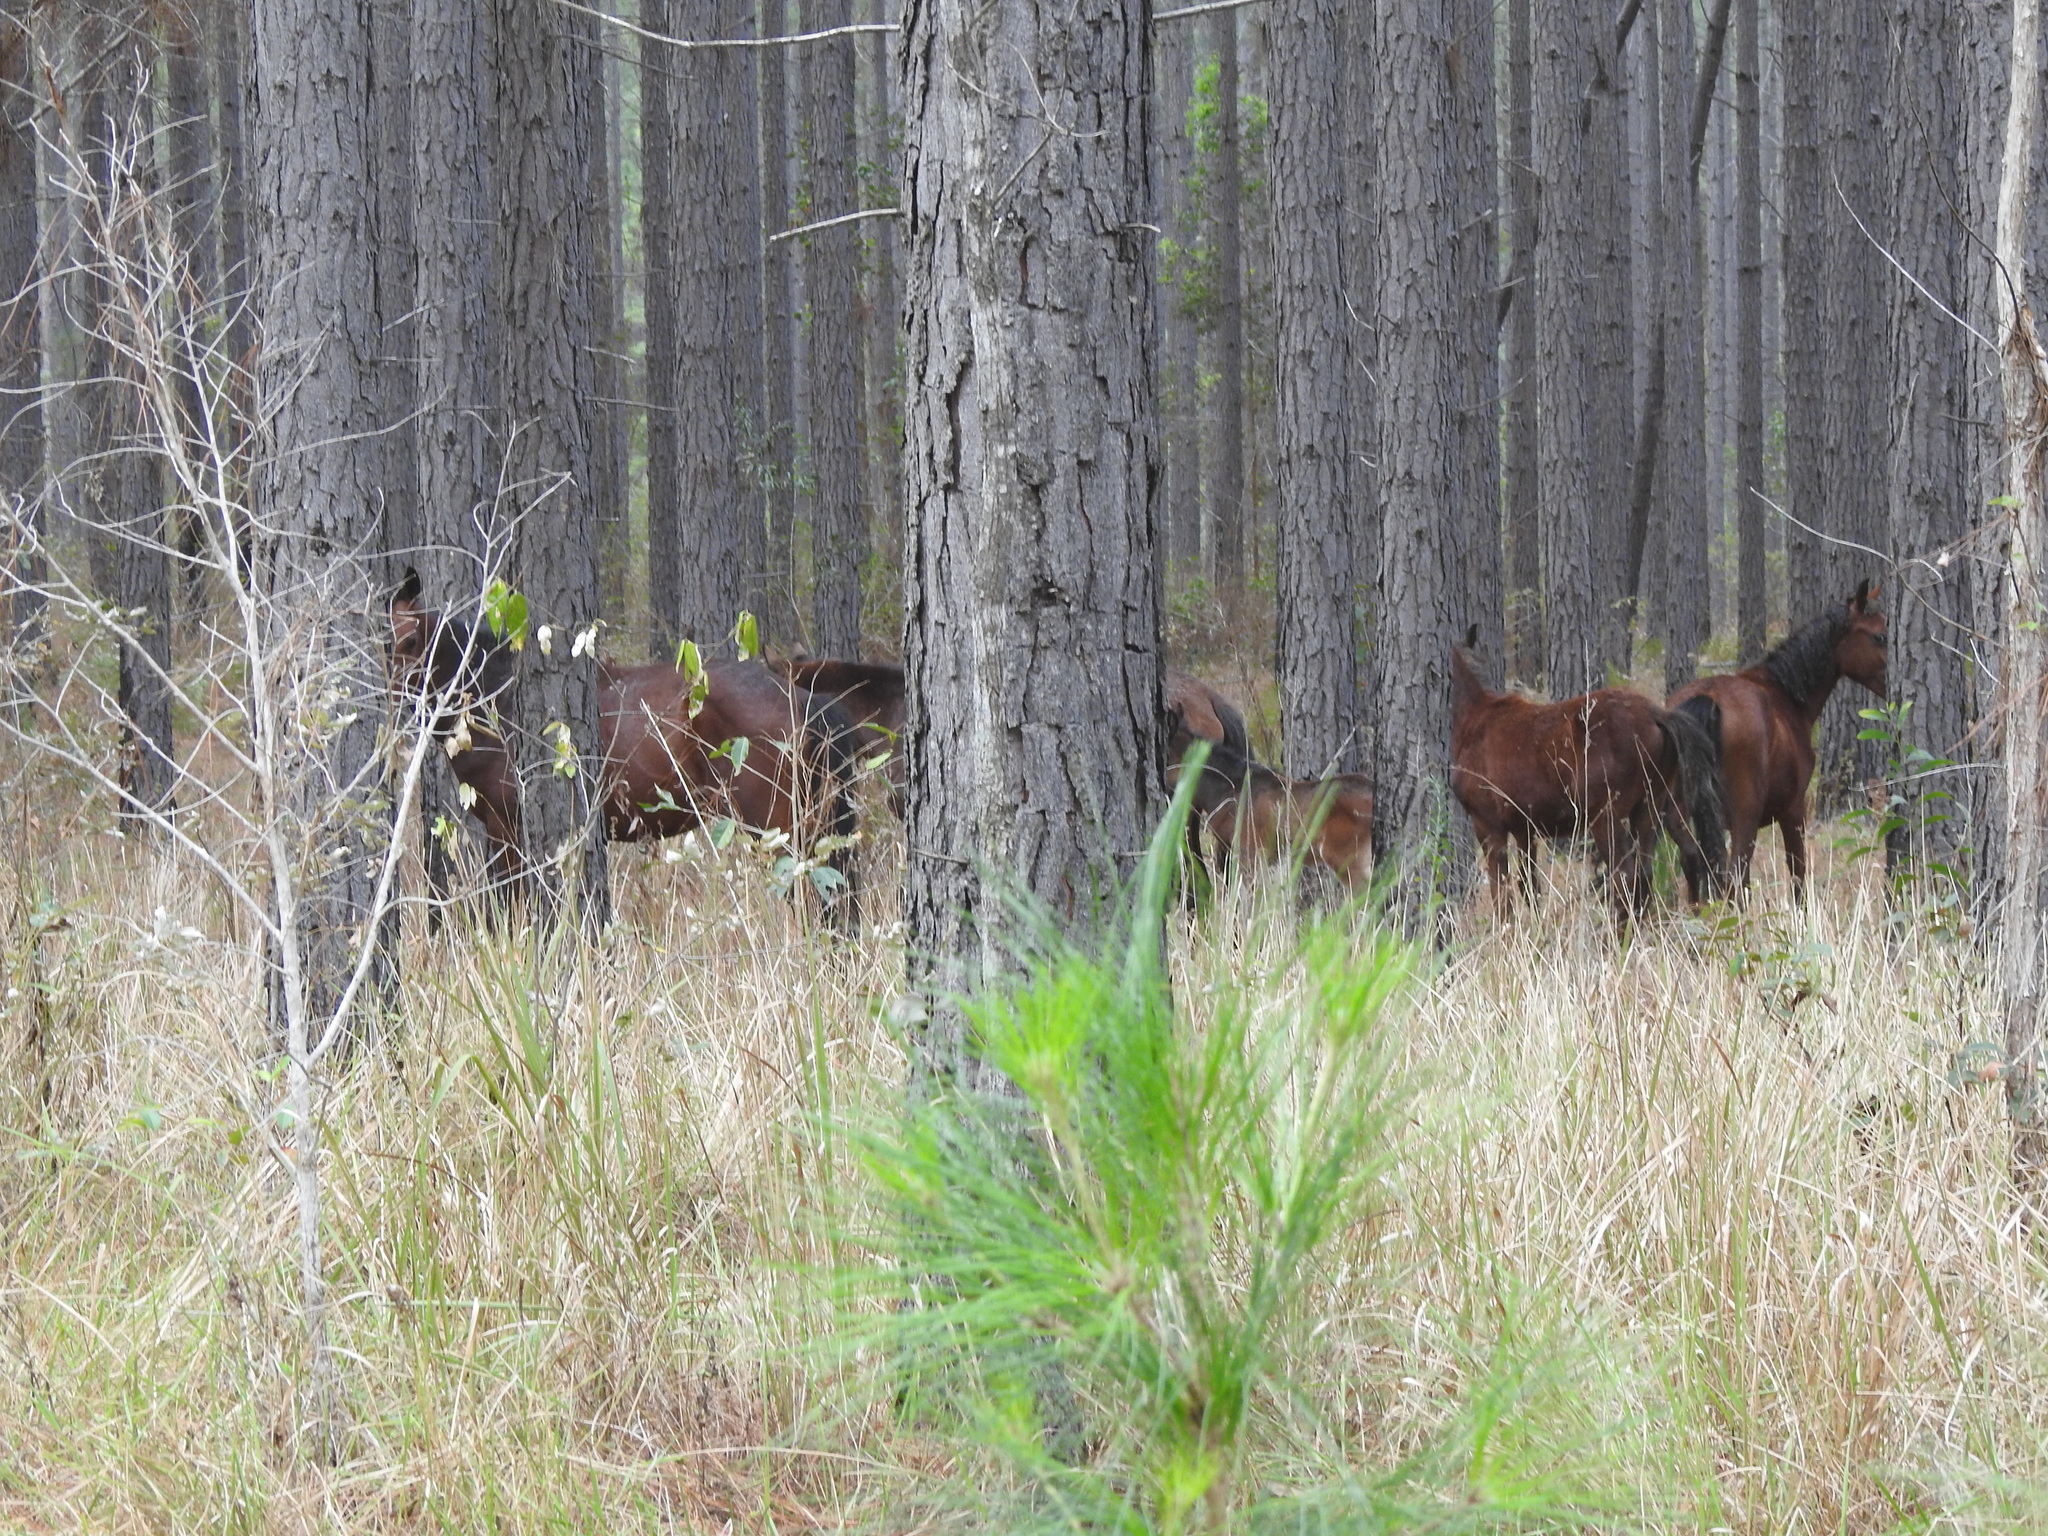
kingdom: Animalia
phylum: Chordata
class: Mammalia
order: Perissodactyla
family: Equidae
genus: Equus
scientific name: Equus caballus
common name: Horse
